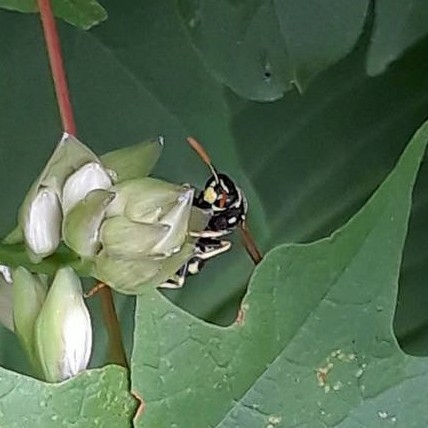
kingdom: Animalia
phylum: Arthropoda
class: Insecta
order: Hymenoptera
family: Eumenidae
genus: Polistes
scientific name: Polistes dominula
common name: Paper wasp
